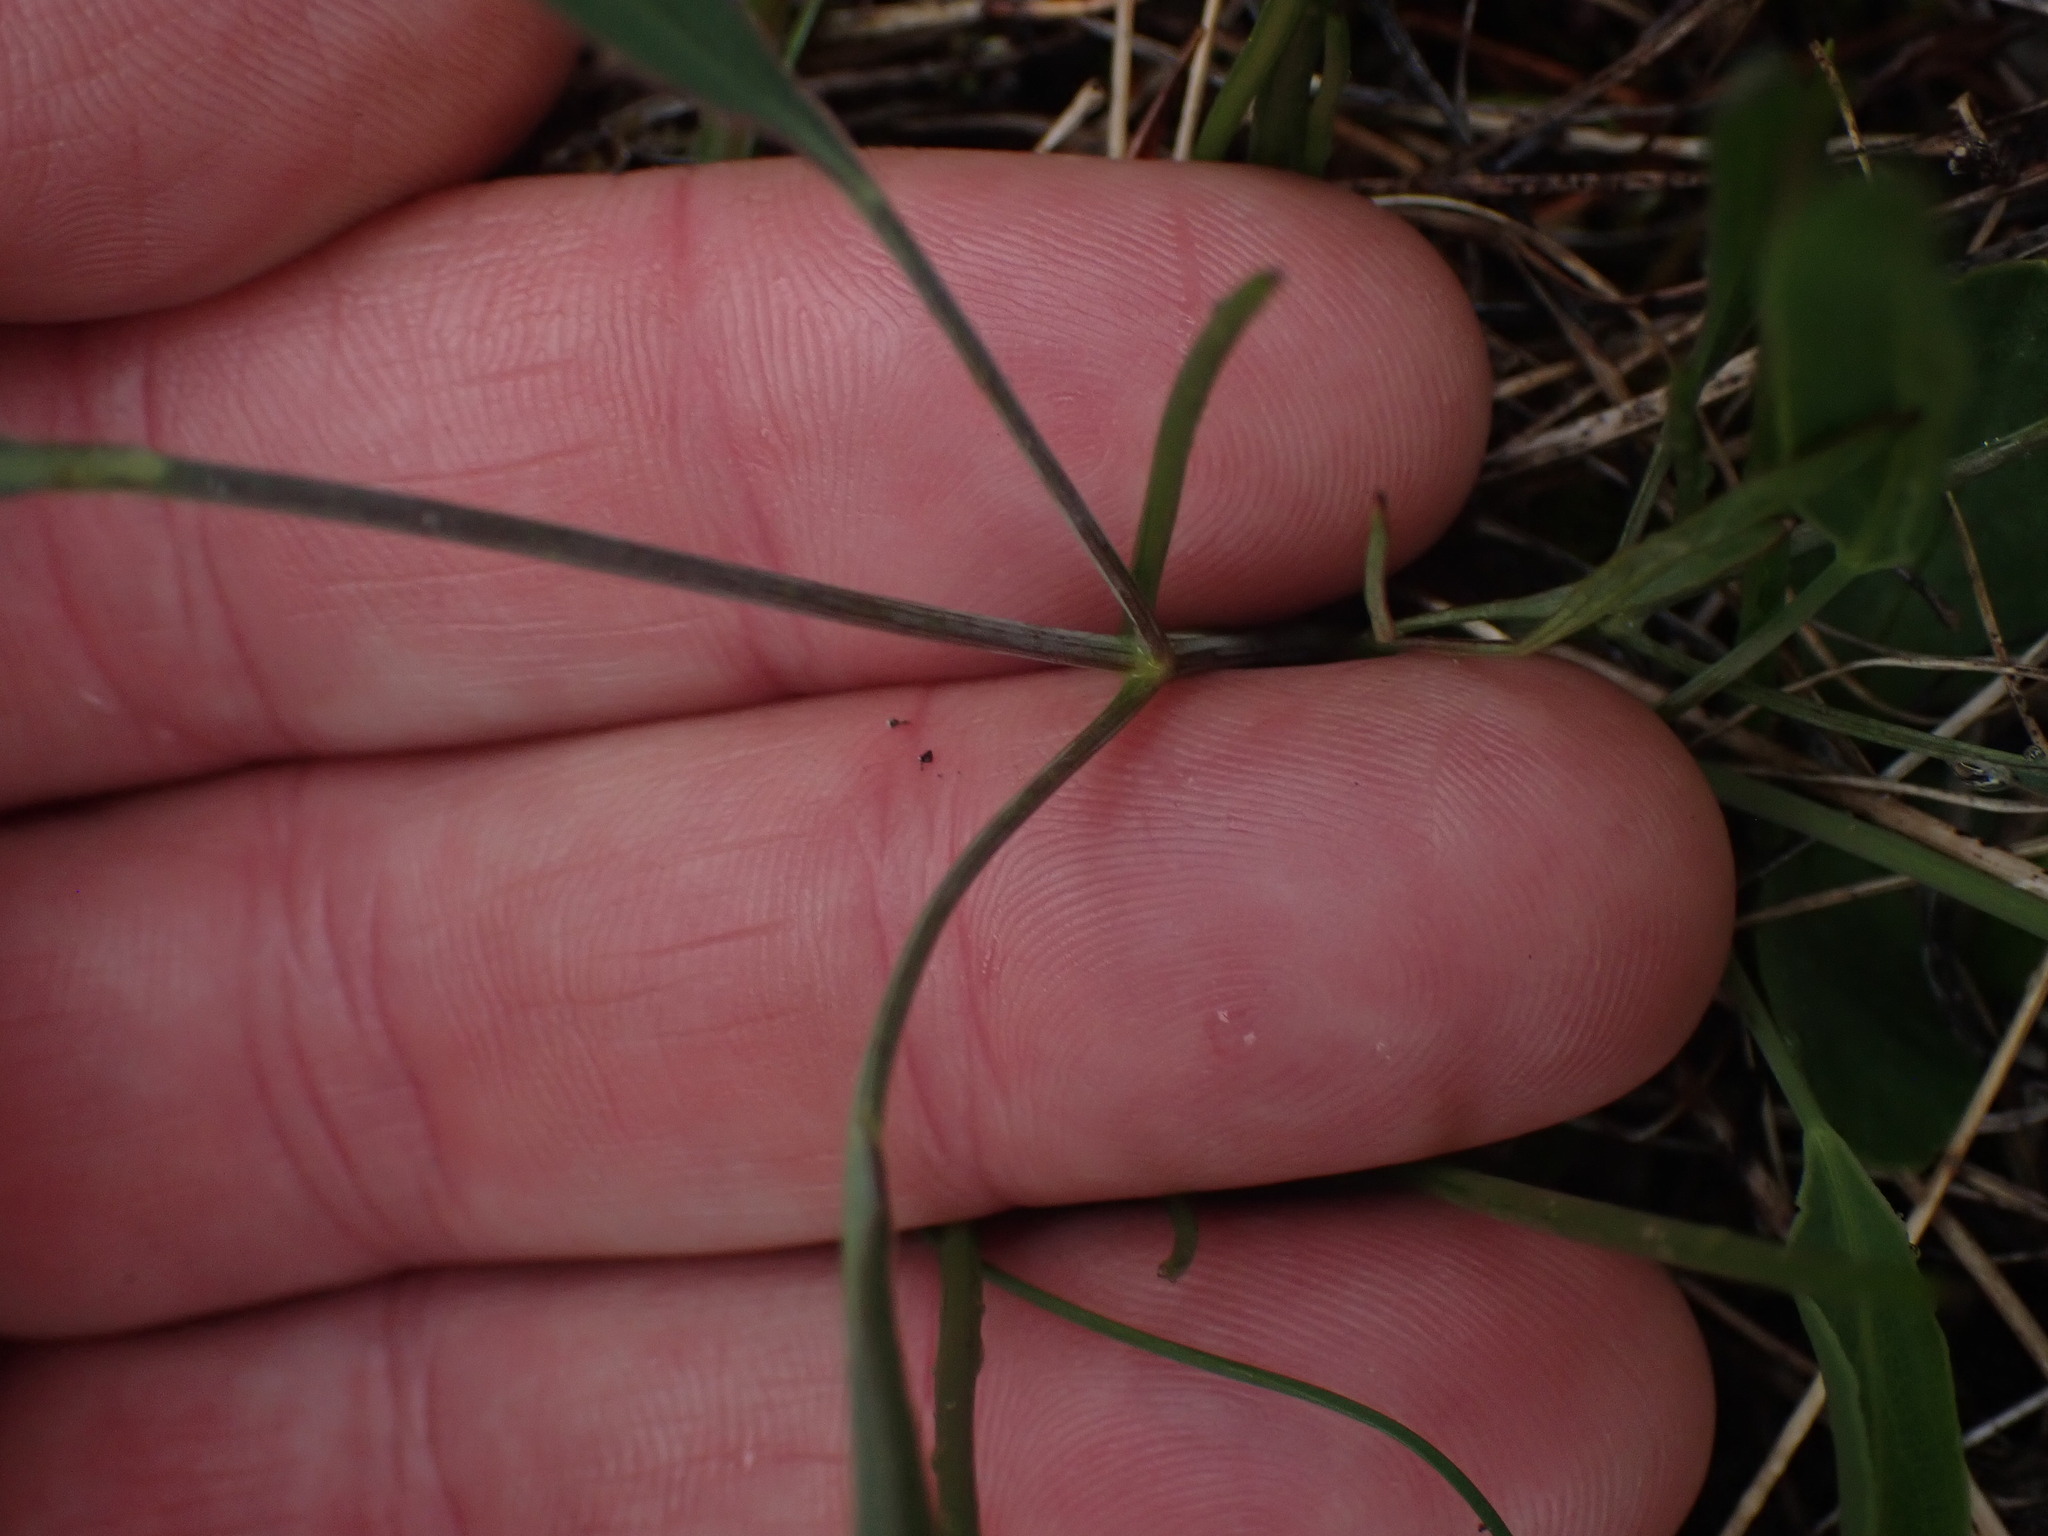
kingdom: Plantae
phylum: Tracheophyta
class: Magnoliopsida
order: Apiales
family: Apiaceae
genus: Lomatium
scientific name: Lomatium nudicaule
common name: Pestle lomatium
